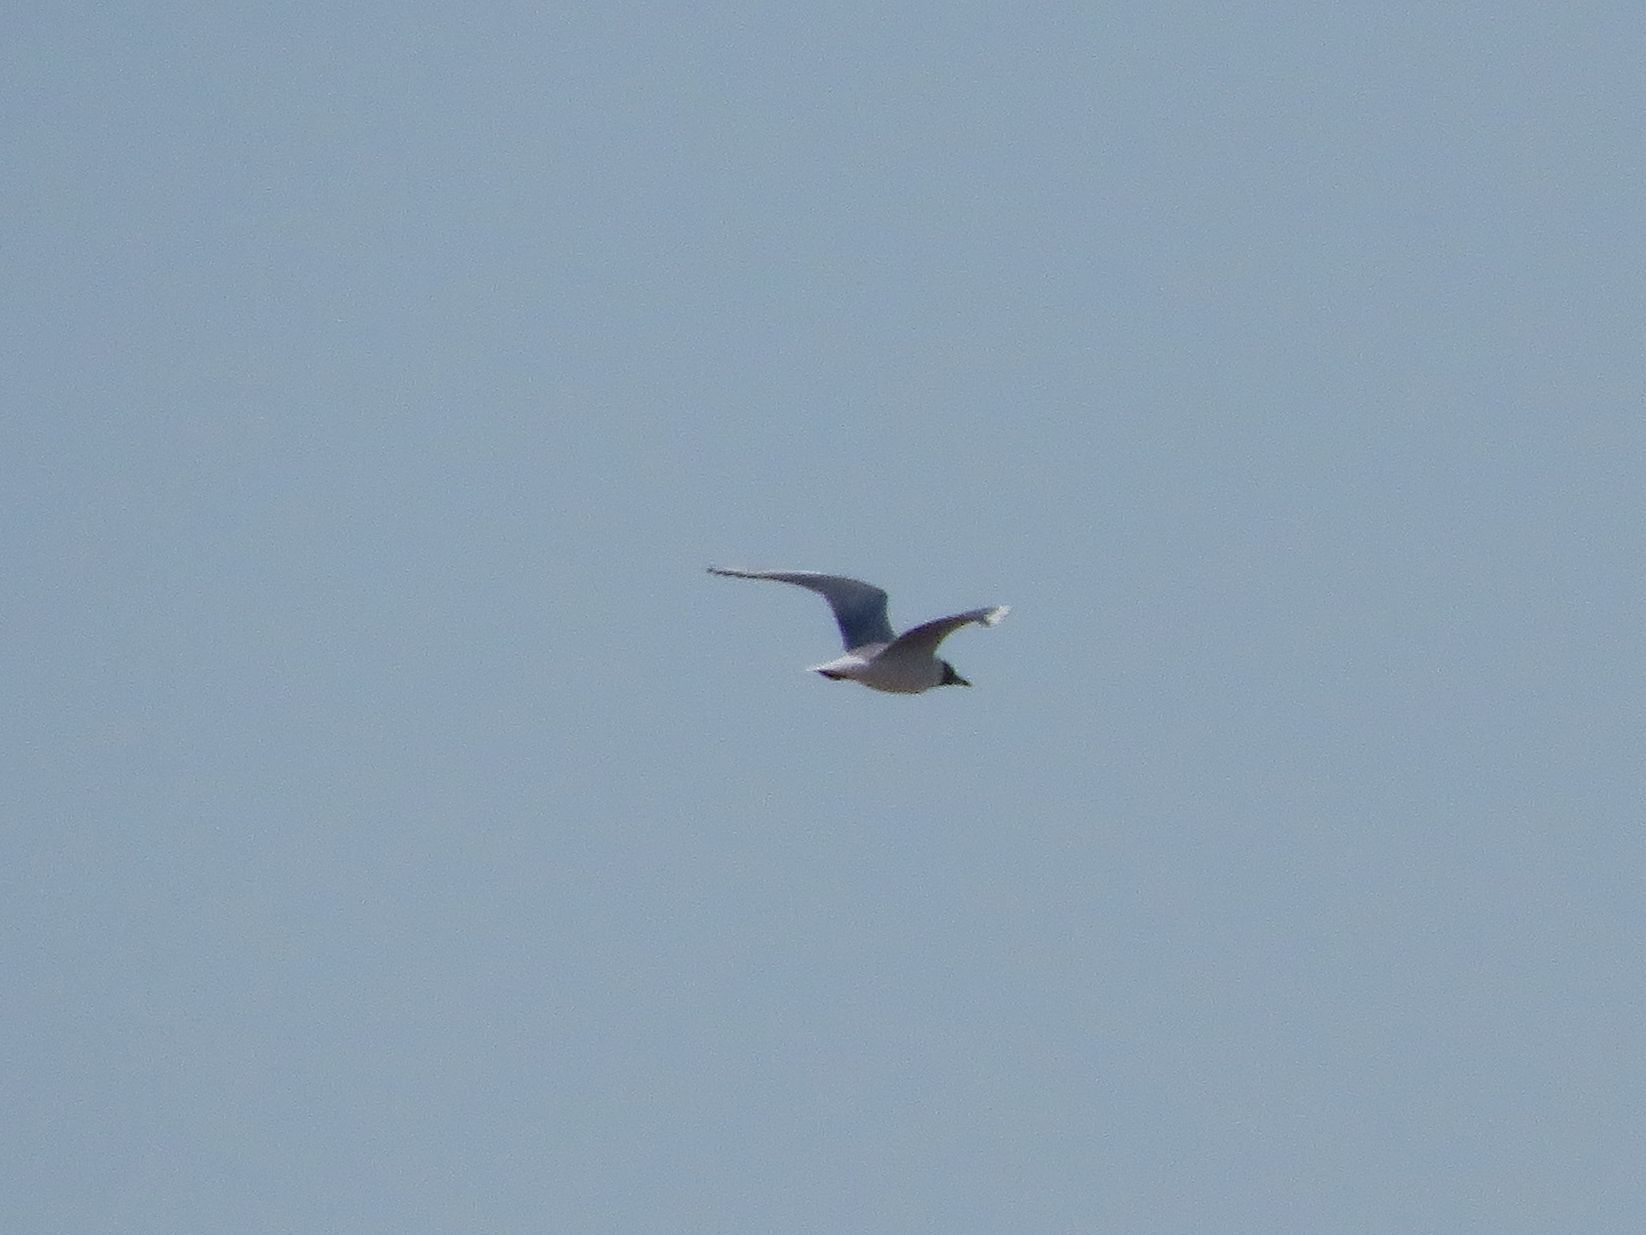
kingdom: Animalia
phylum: Chordata
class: Aves
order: Charadriiformes
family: Laridae
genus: Chroicocephalus
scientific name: Chroicocephalus maculipennis
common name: Brown-hooded gull
